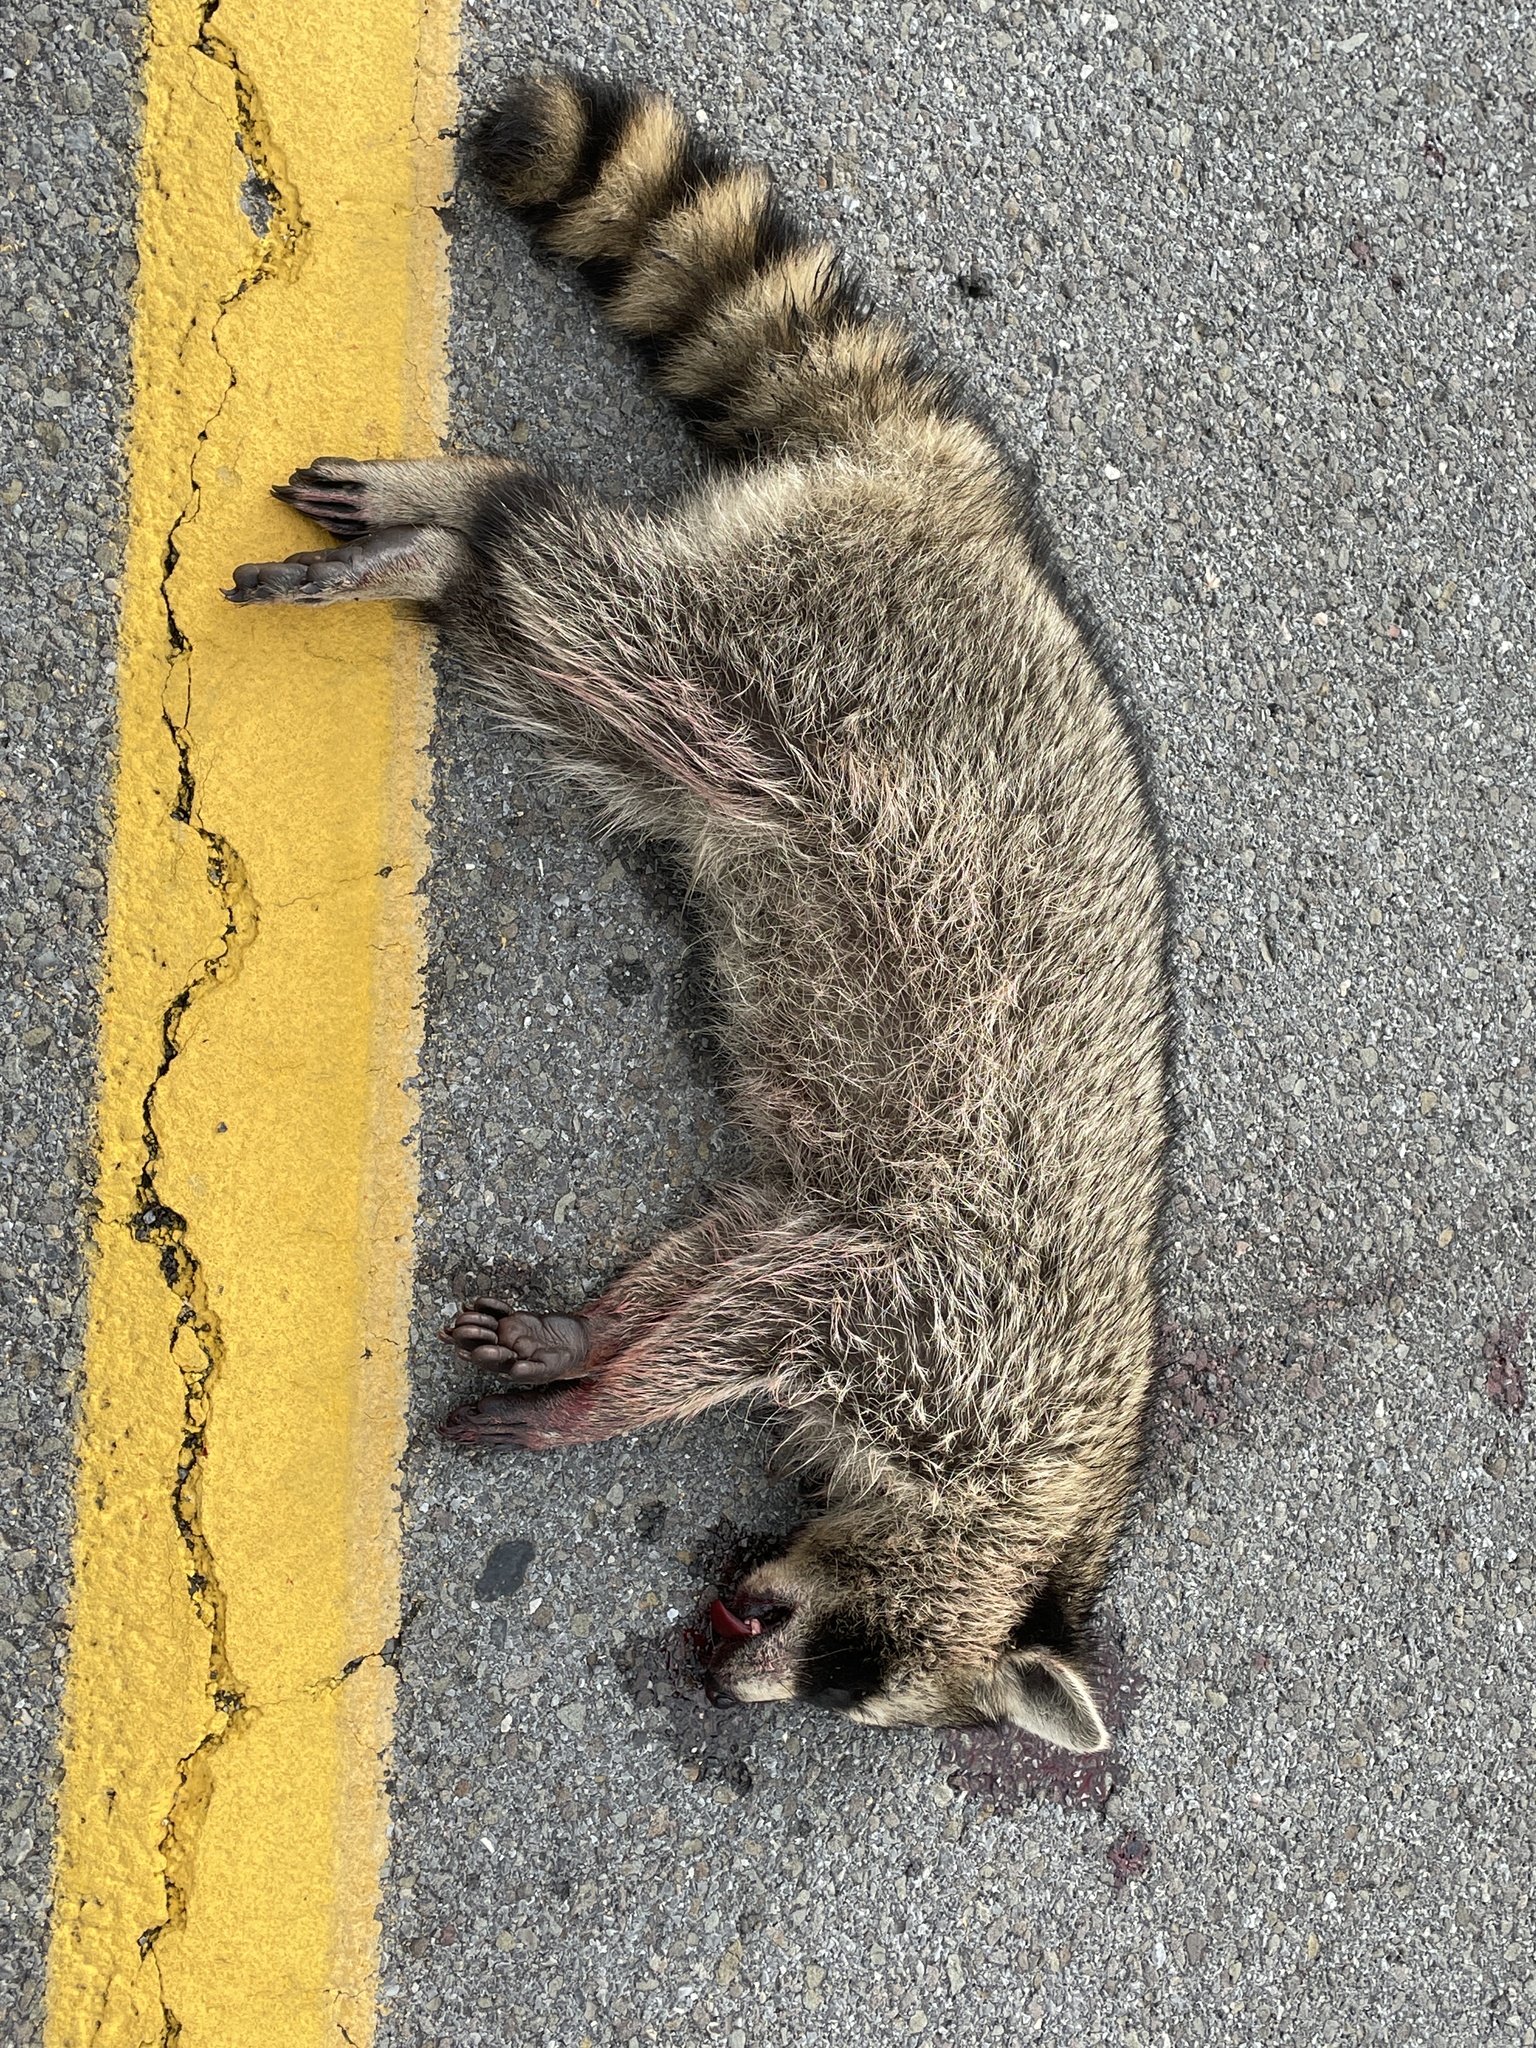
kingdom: Animalia
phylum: Chordata
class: Mammalia
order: Carnivora
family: Procyonidae
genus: Procyon
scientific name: Procyon lotor
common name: Raccoon
